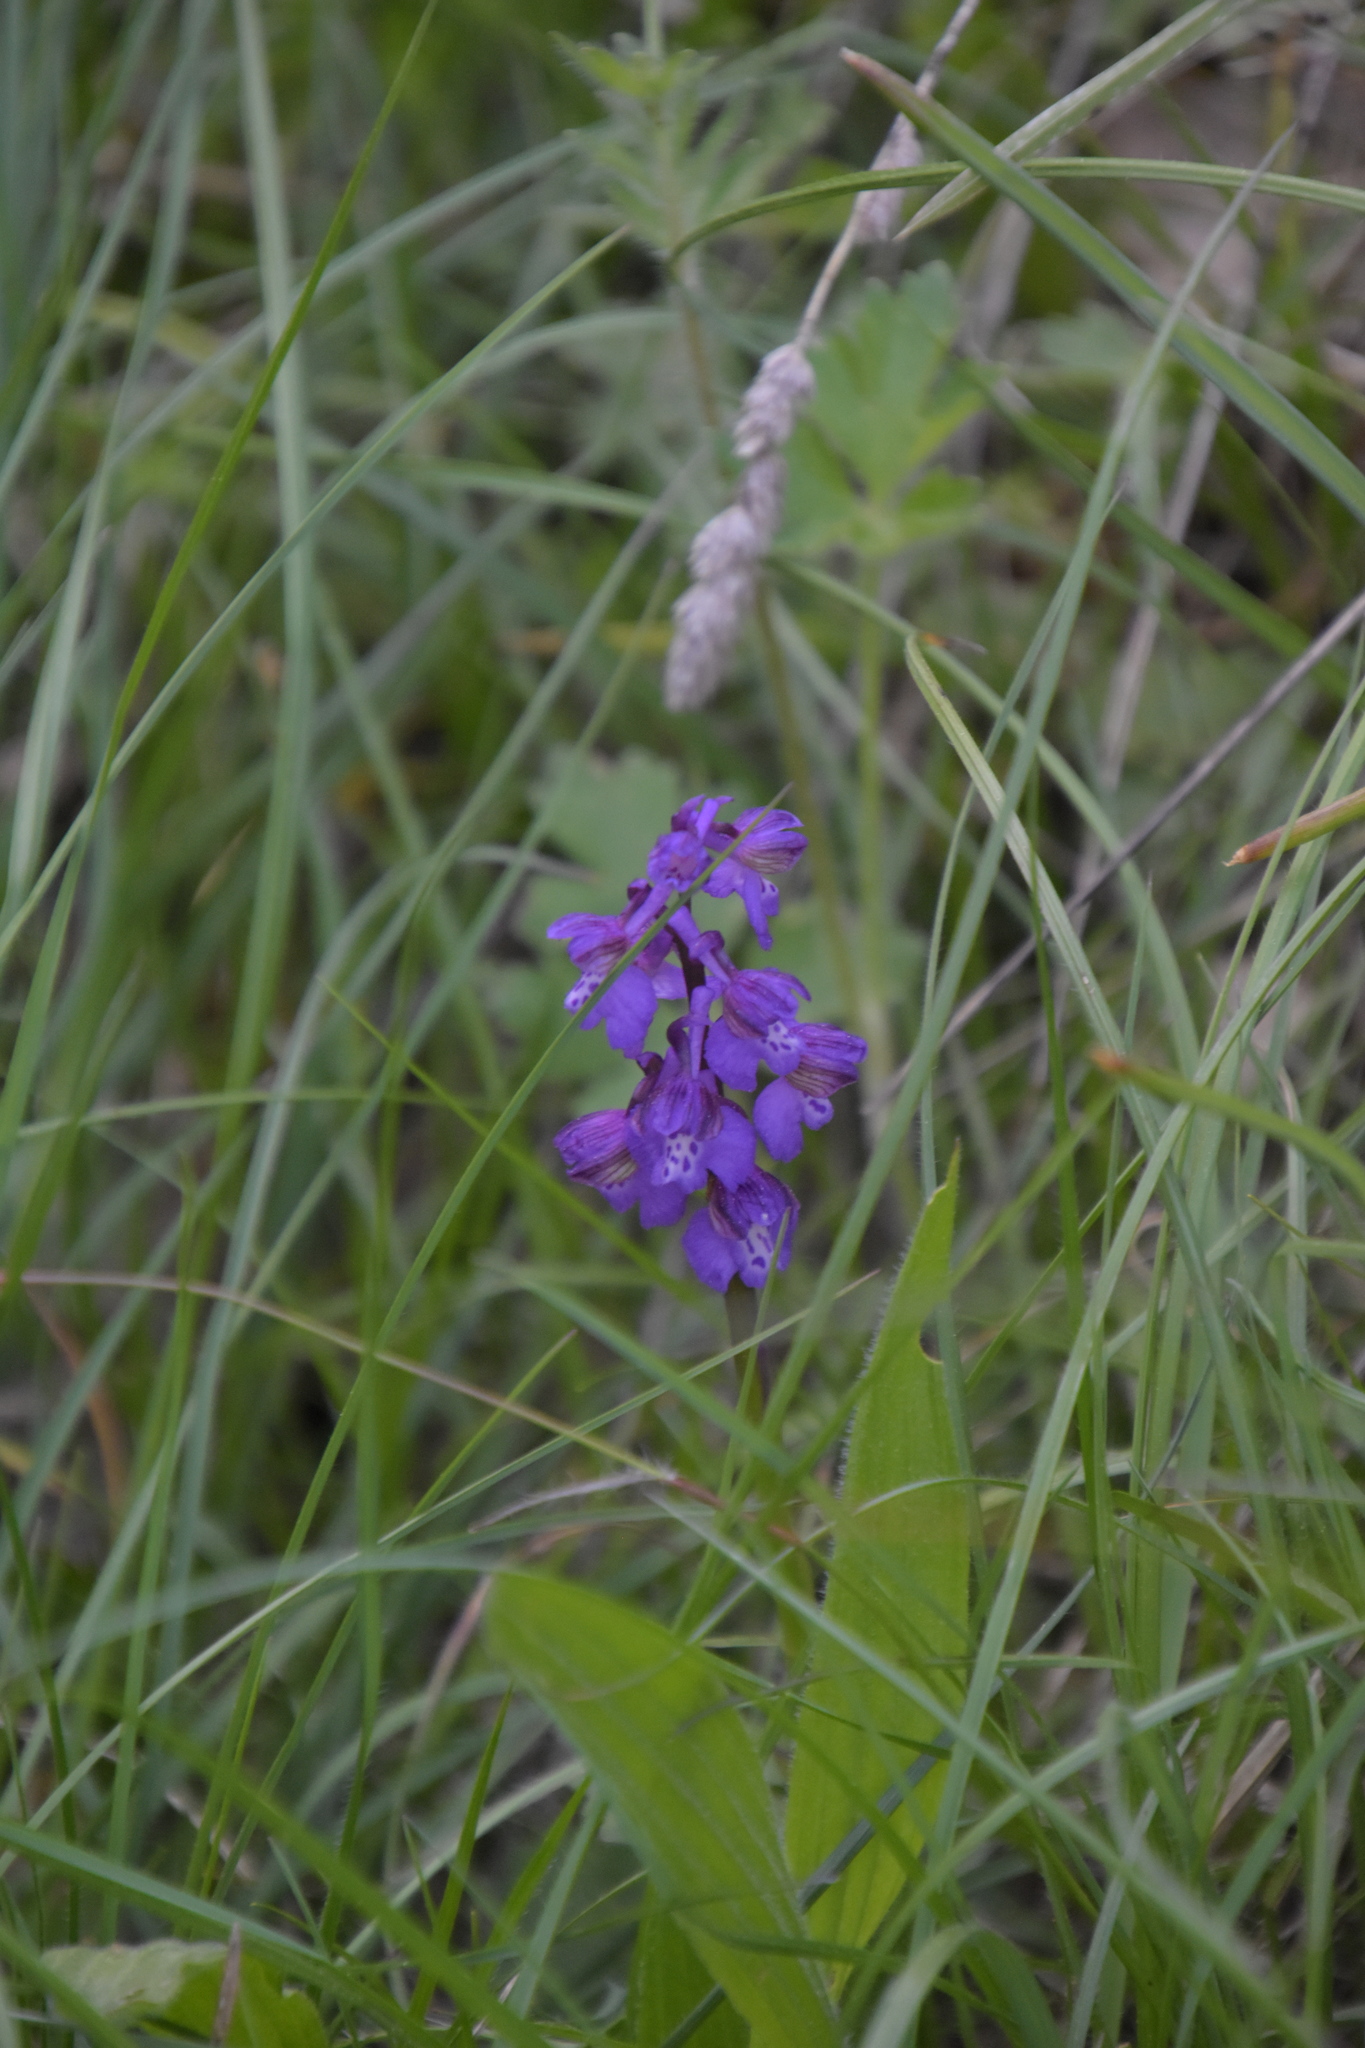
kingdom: Plantae
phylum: Tracheophyta
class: Liliopsida
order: Asparagales
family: Orchidaceae
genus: Anacamptis
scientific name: Anacamptis morio
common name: Green-winged orchid
